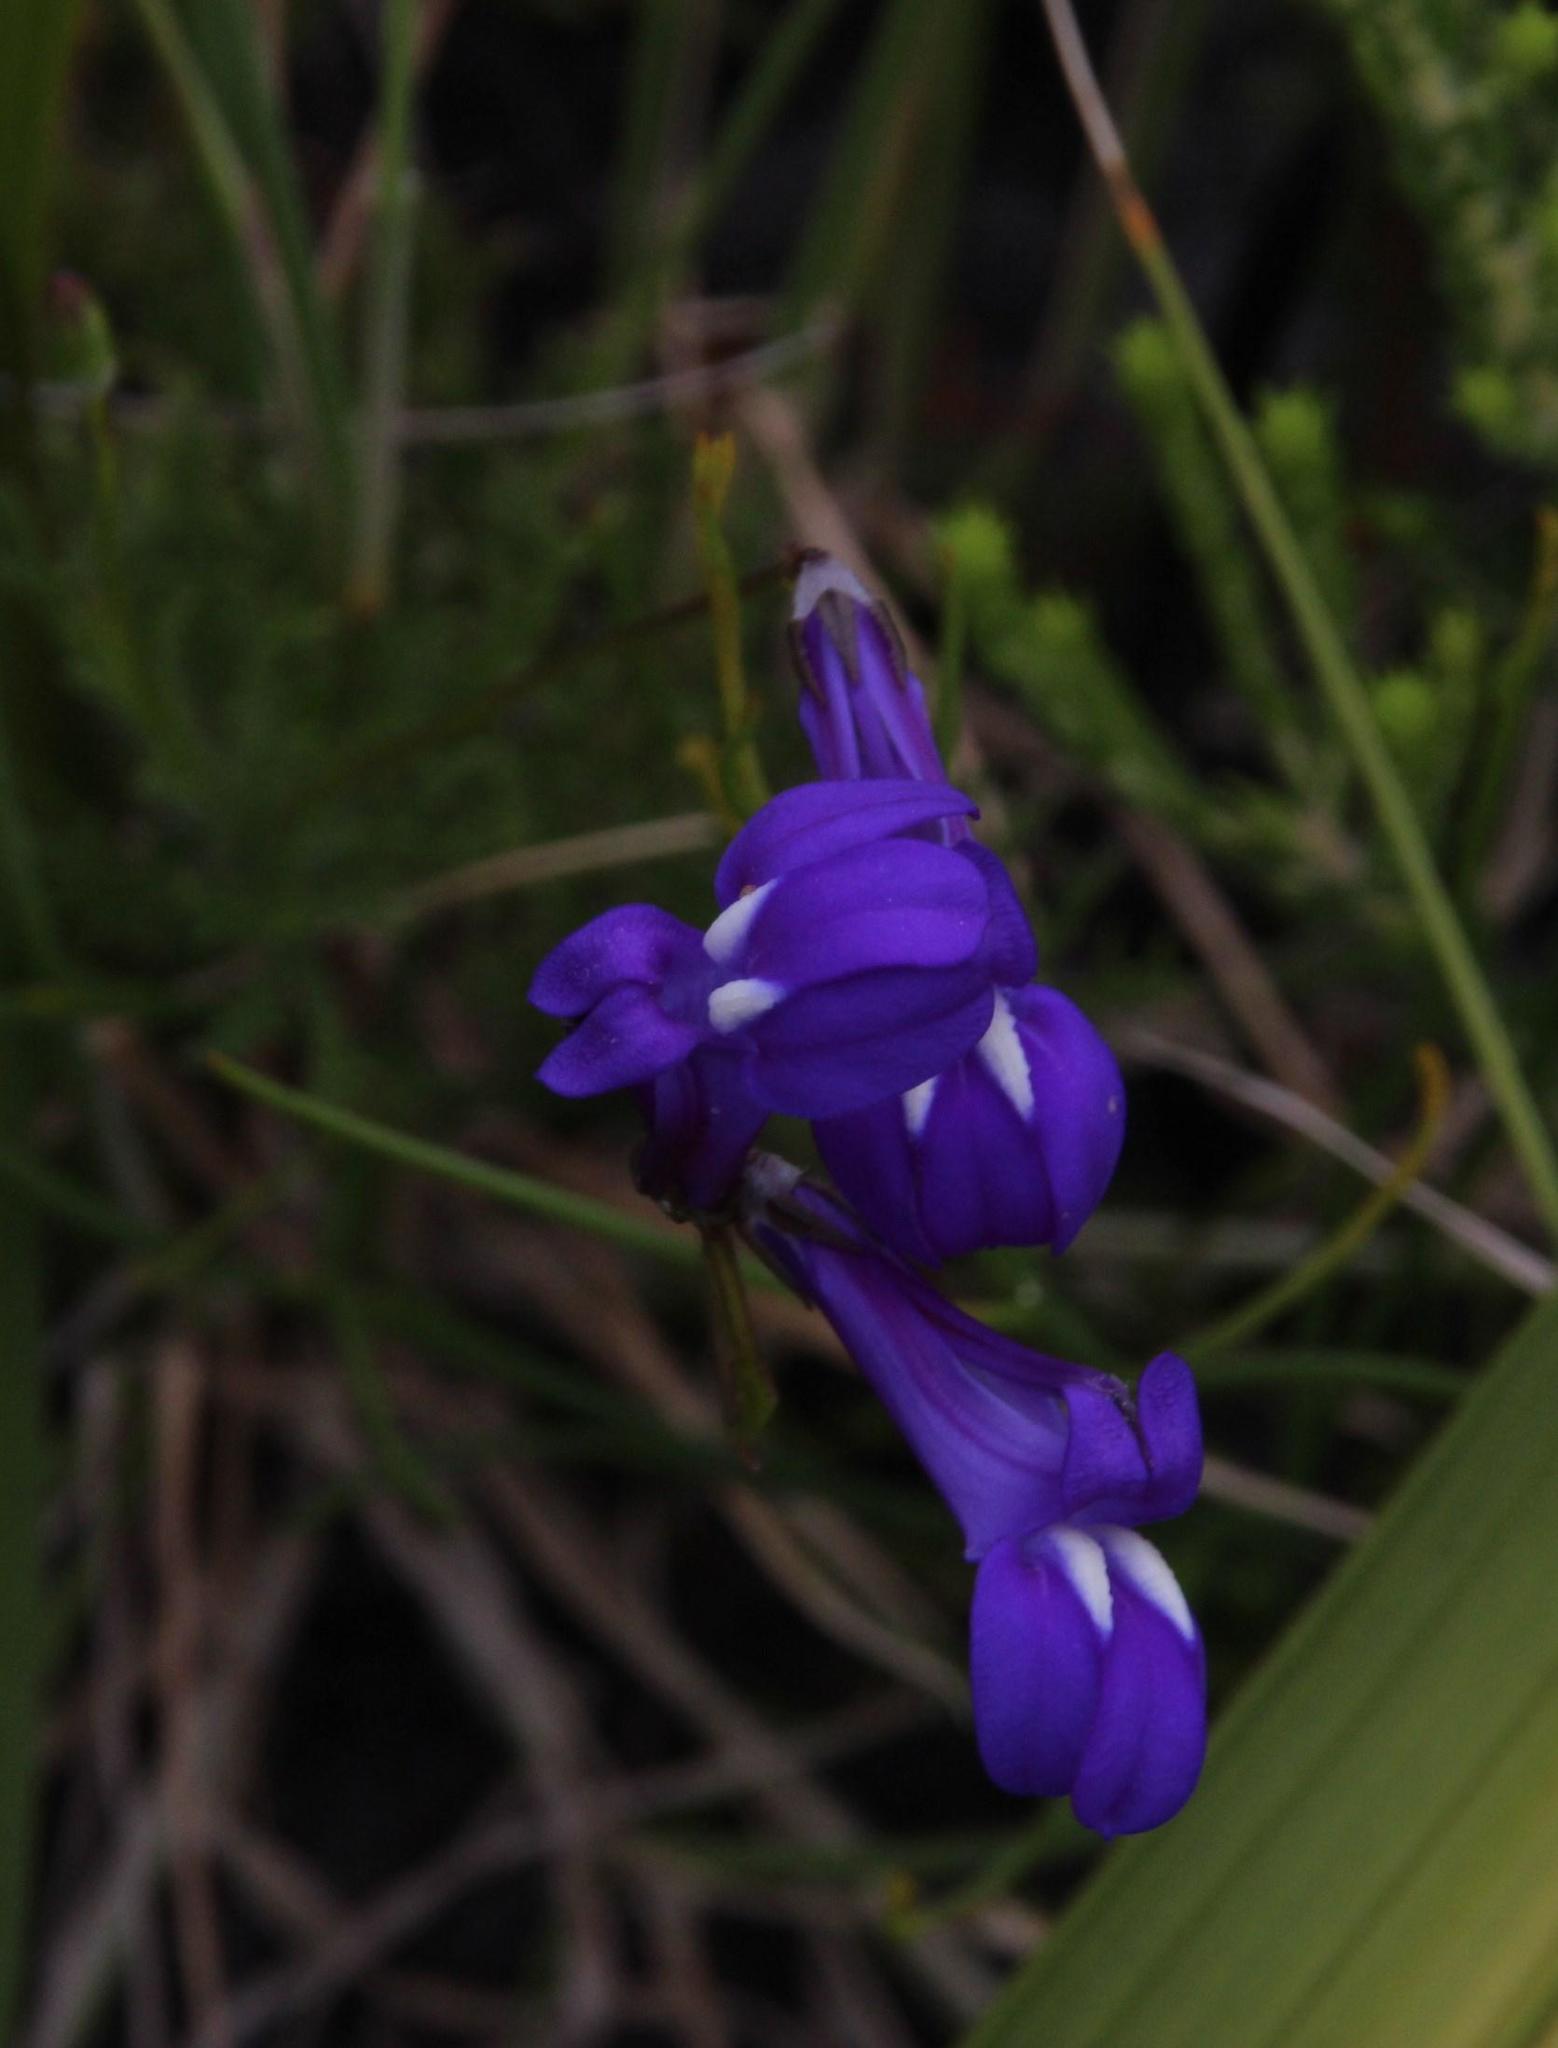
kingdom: Plantae
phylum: Tracheophyta
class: Magnoliopsida
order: Asterales
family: Campanulaceae
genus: Lobelia
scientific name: Lobelia coronopifolia
